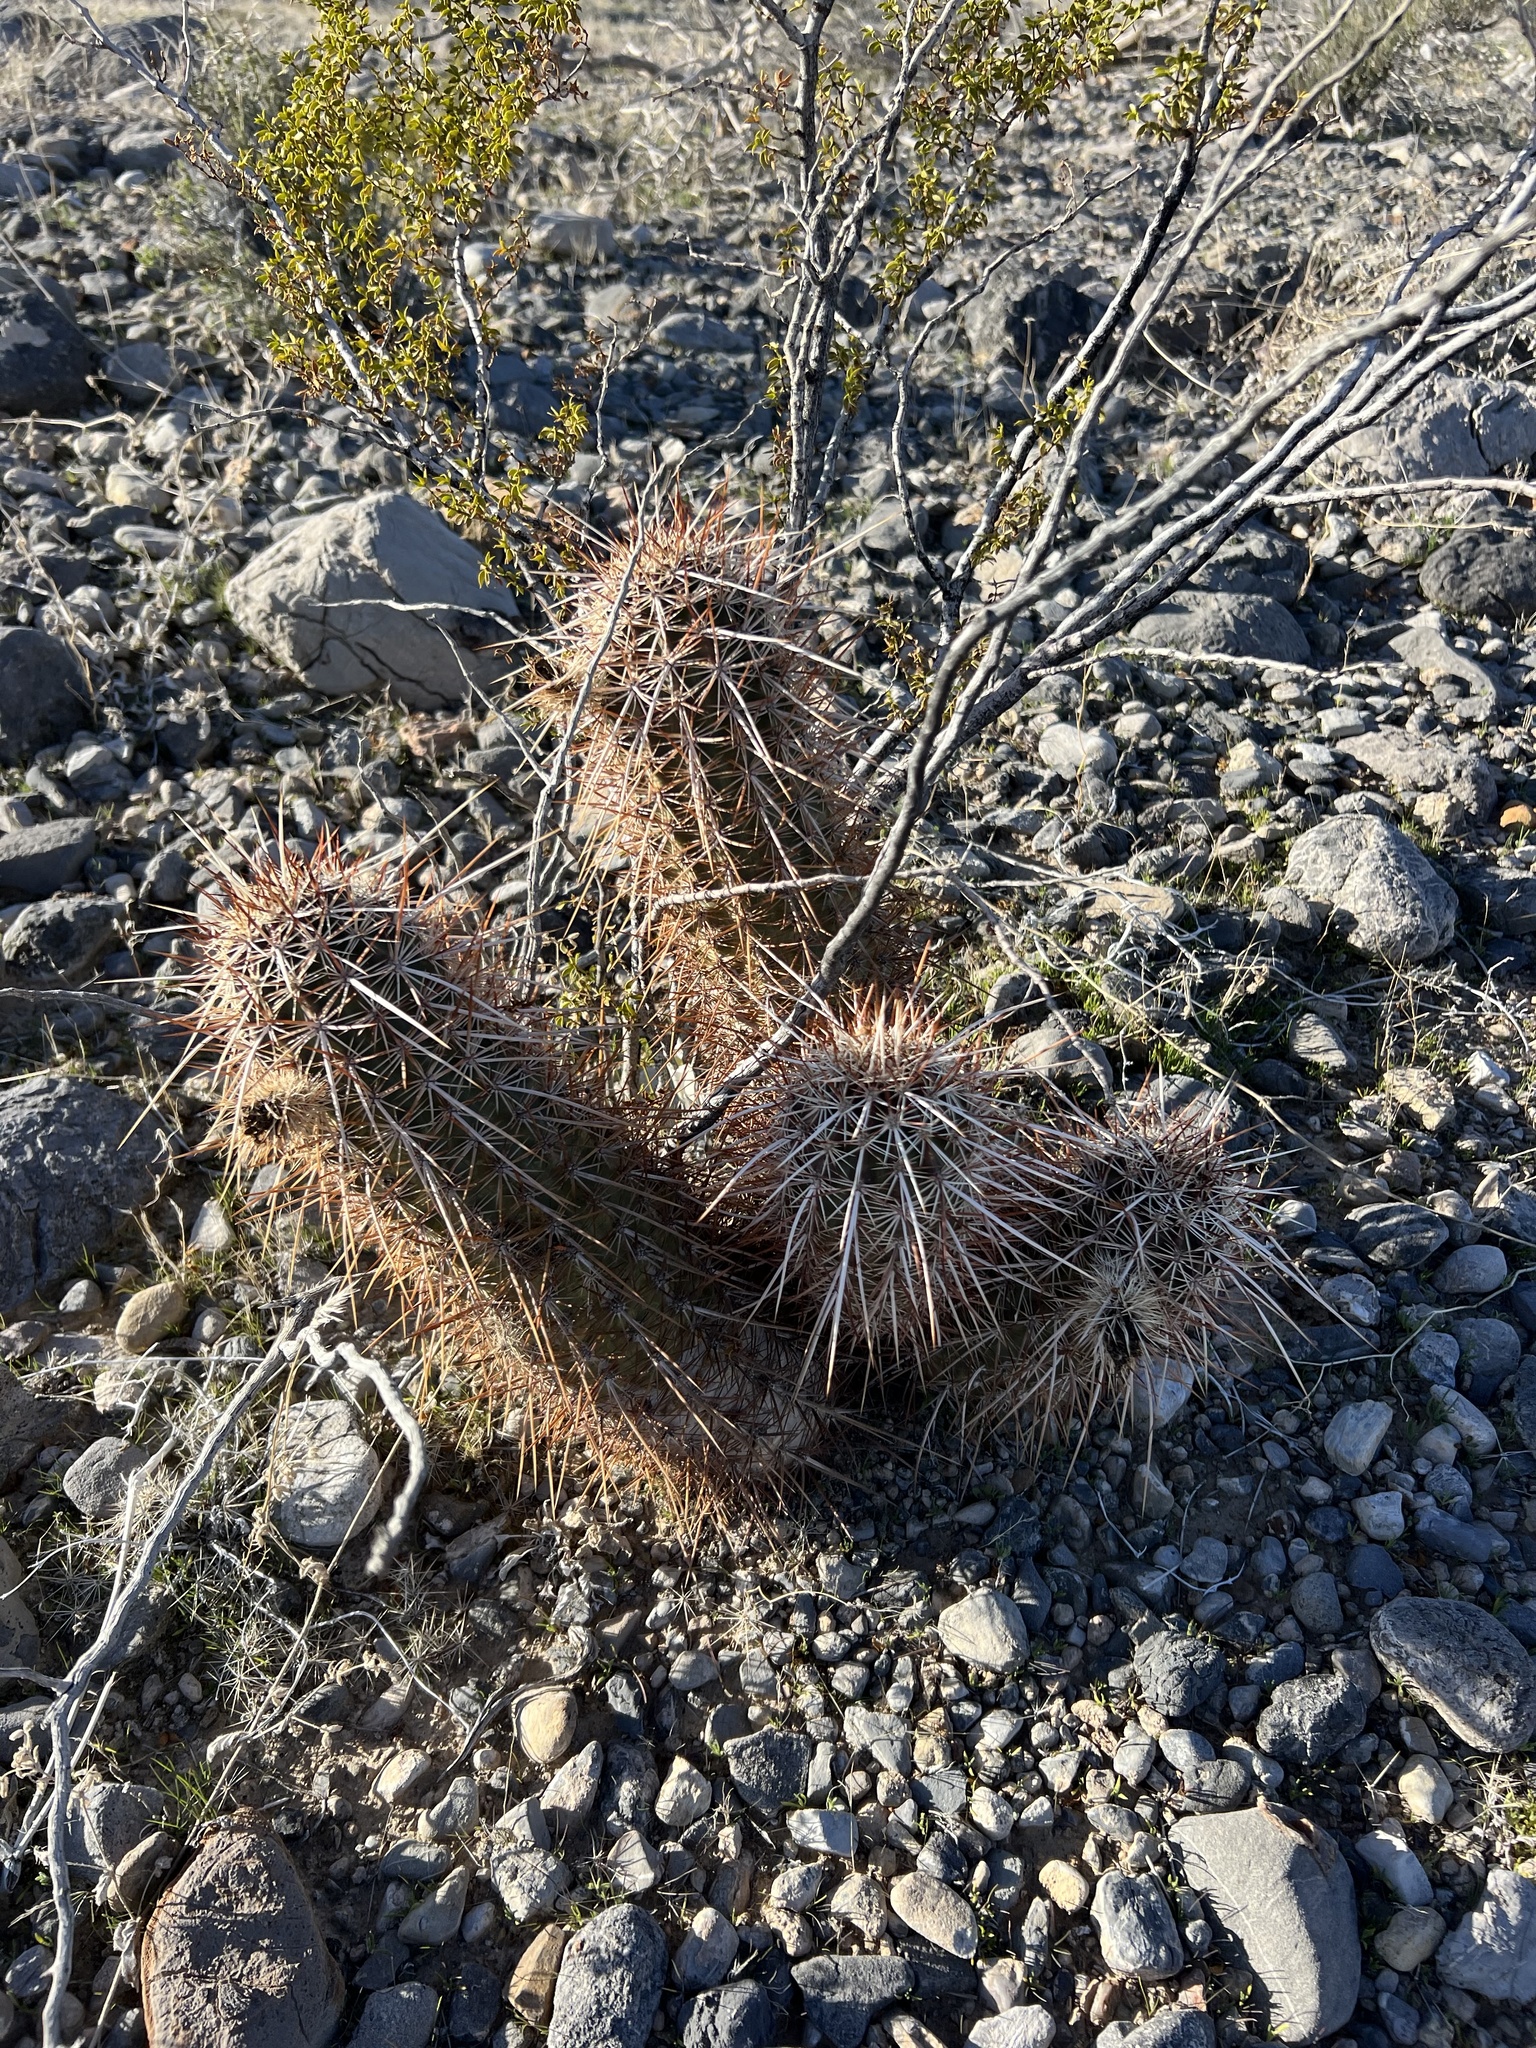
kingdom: Plantae
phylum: Tracheophyta
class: Magnoliopsida
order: Caryophyllales
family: Cactaceae
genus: Echinocereus
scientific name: Echinocereus engelmannii
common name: Engelmann's hedgehog cactus
